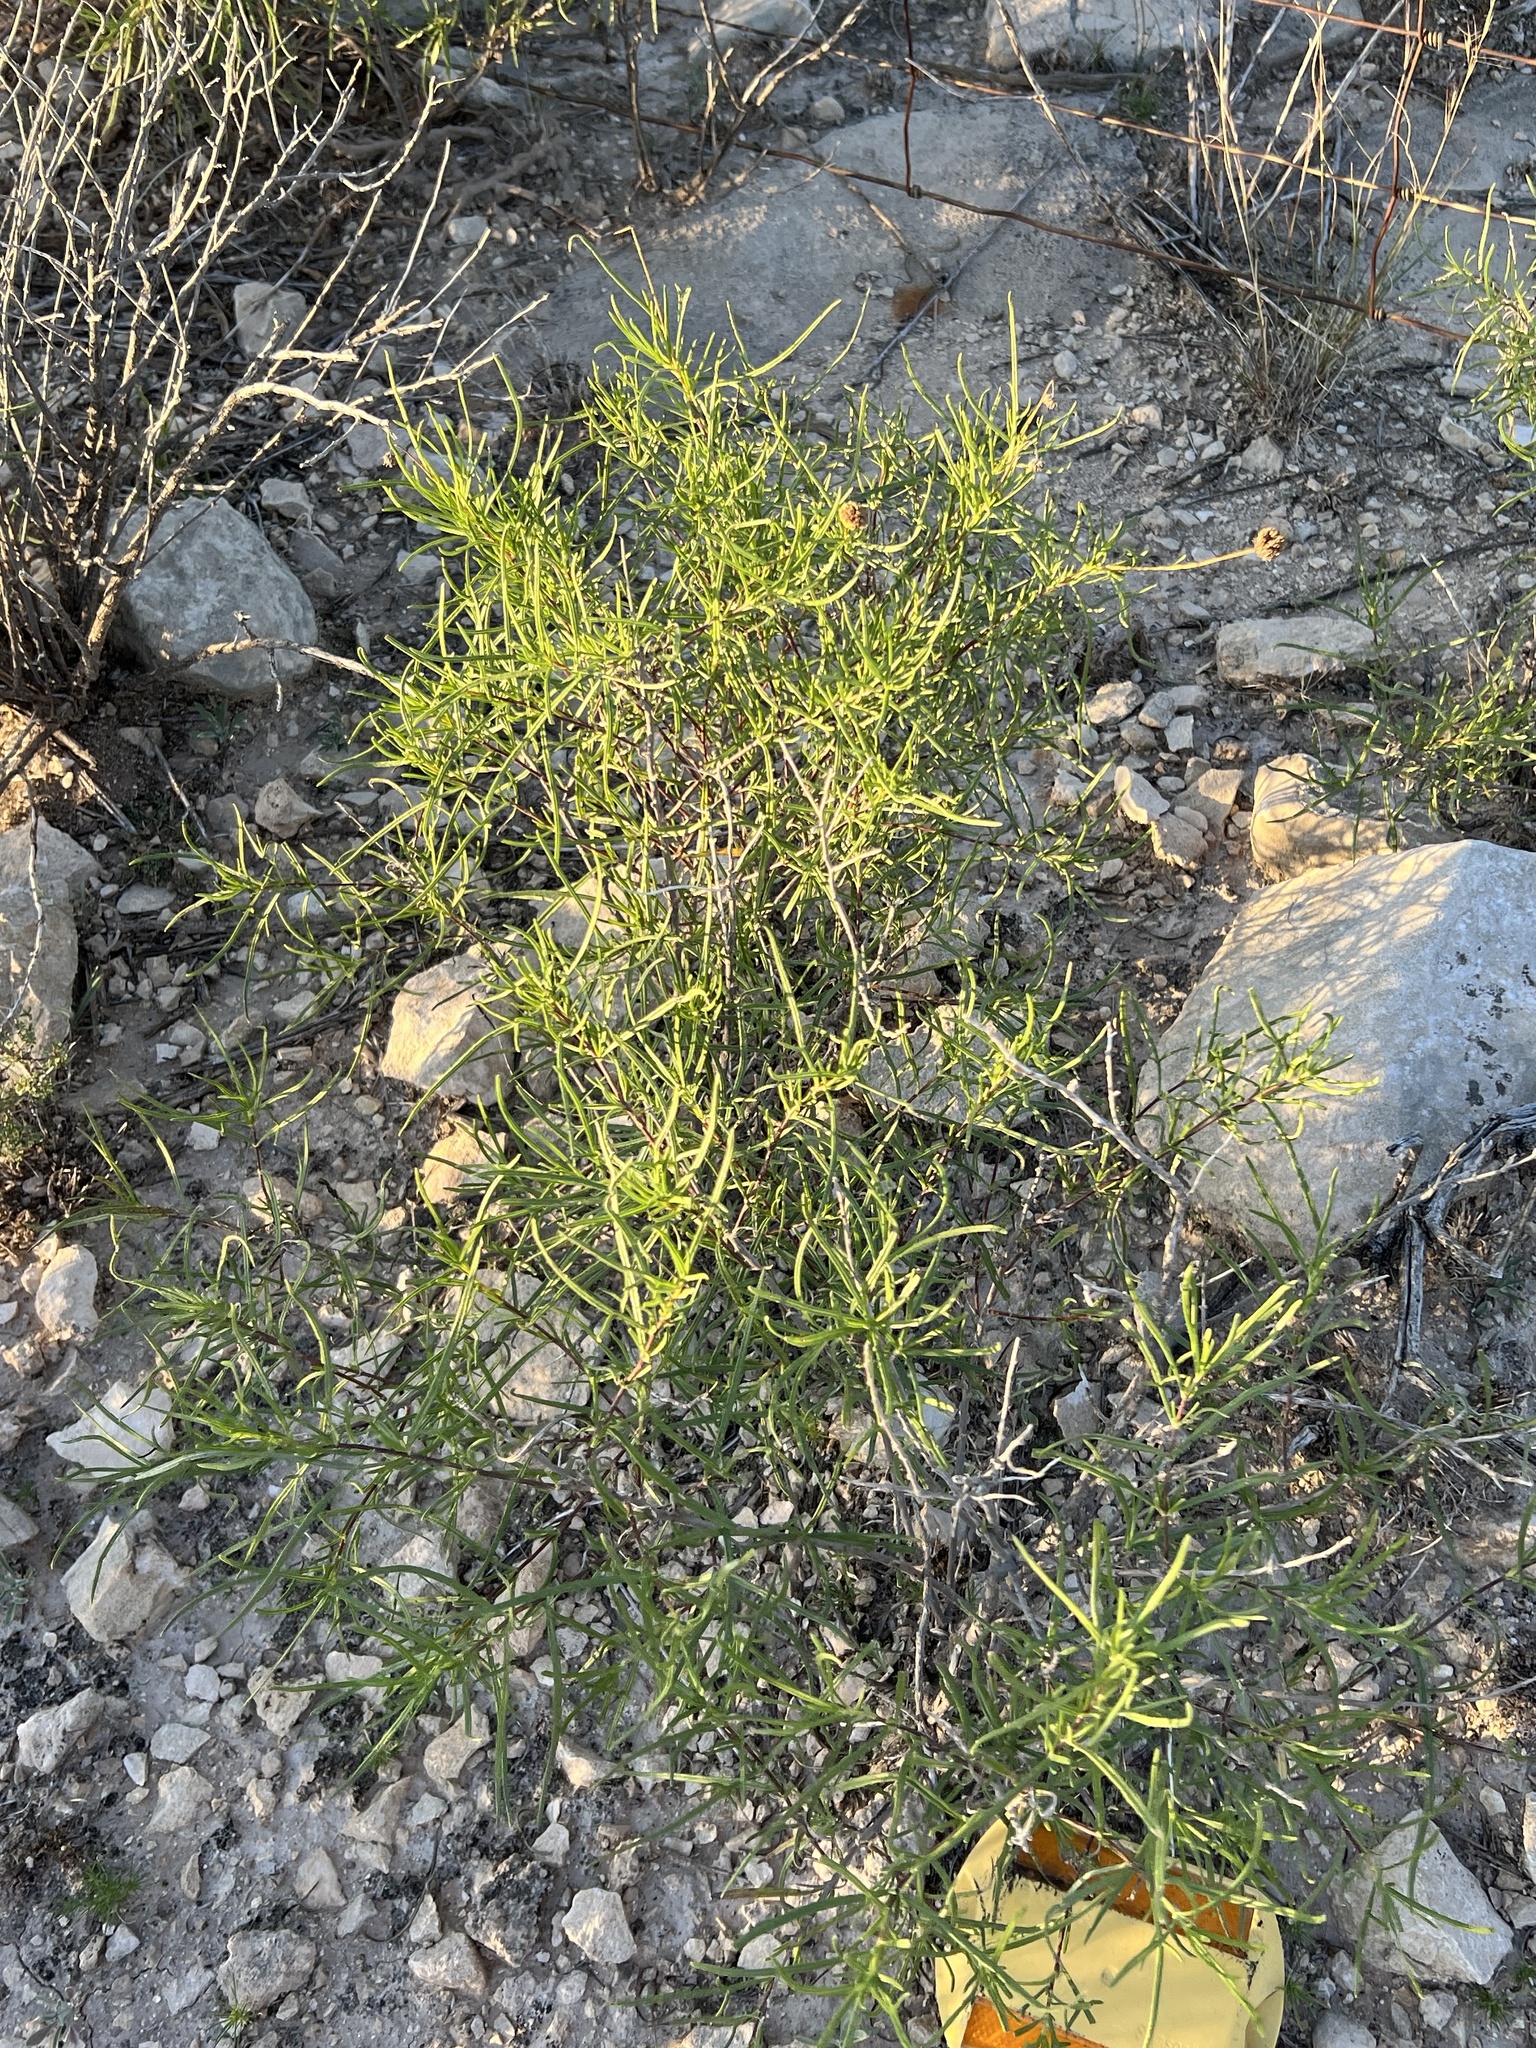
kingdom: Plantae
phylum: Tracheophyta
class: Magnoliopsida
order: Asterales
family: Asteraceae
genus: Sidneya
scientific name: Sidneya tenuifolia
